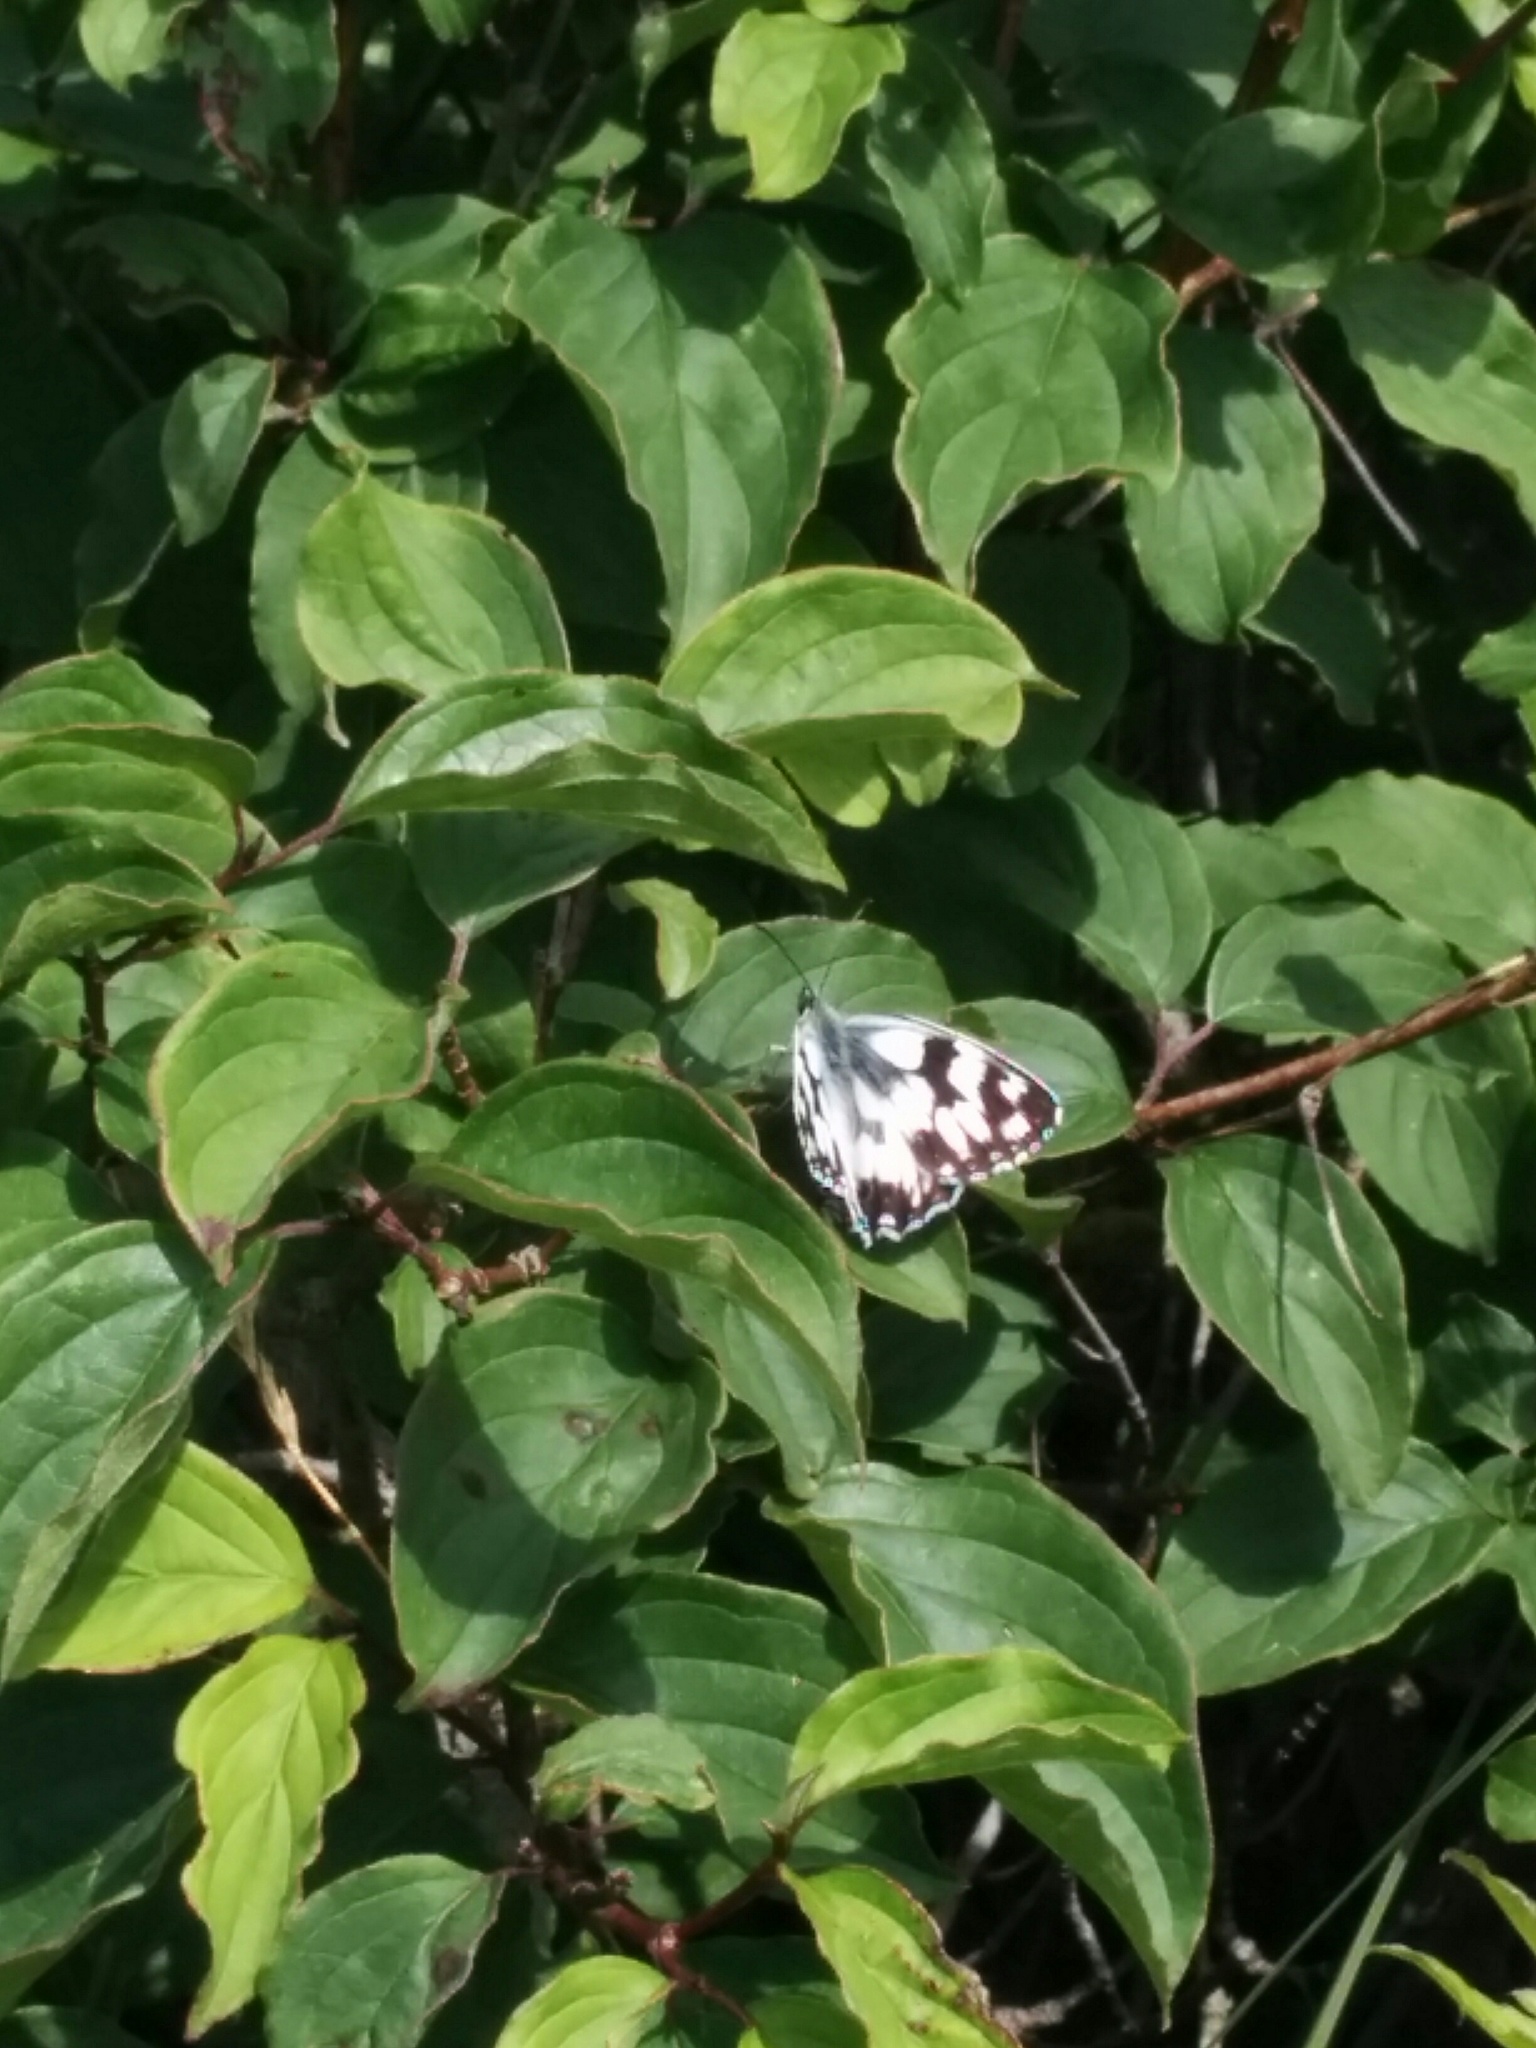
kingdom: Animalia
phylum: Arthropoda
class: Insecta
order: Lepidoptera
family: Nymphalidae
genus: Melanargia
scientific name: Melanargia galathea
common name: Marbled white
